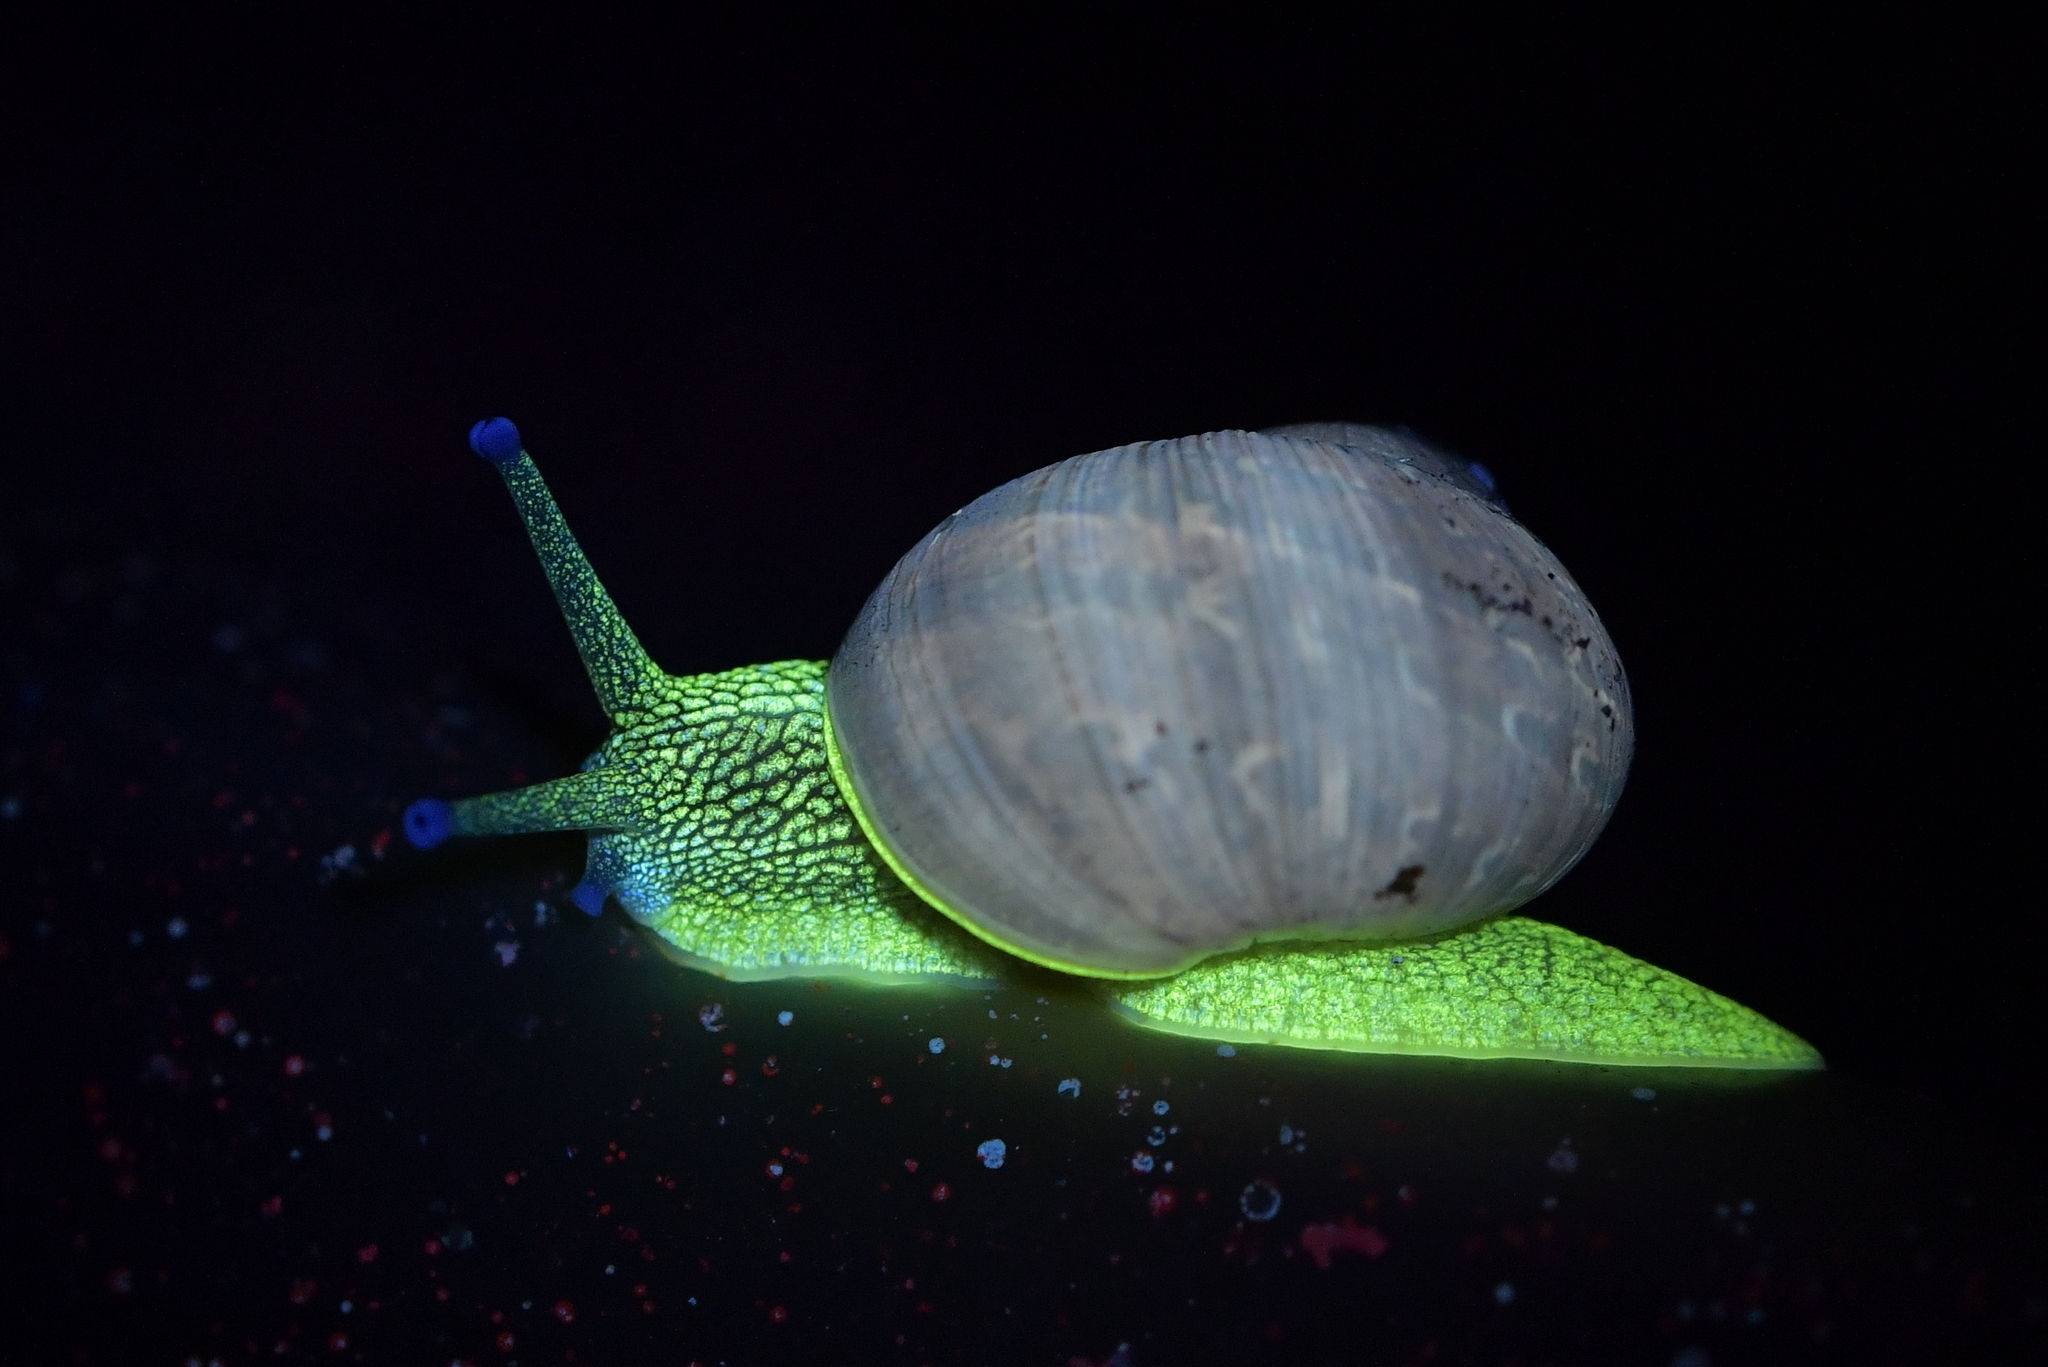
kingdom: Animalia
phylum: Mollusca
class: Gastropoda
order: Stylommatophora
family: Helicidae
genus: Cornu
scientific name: Cornu aspersum
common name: Brown garden snail
